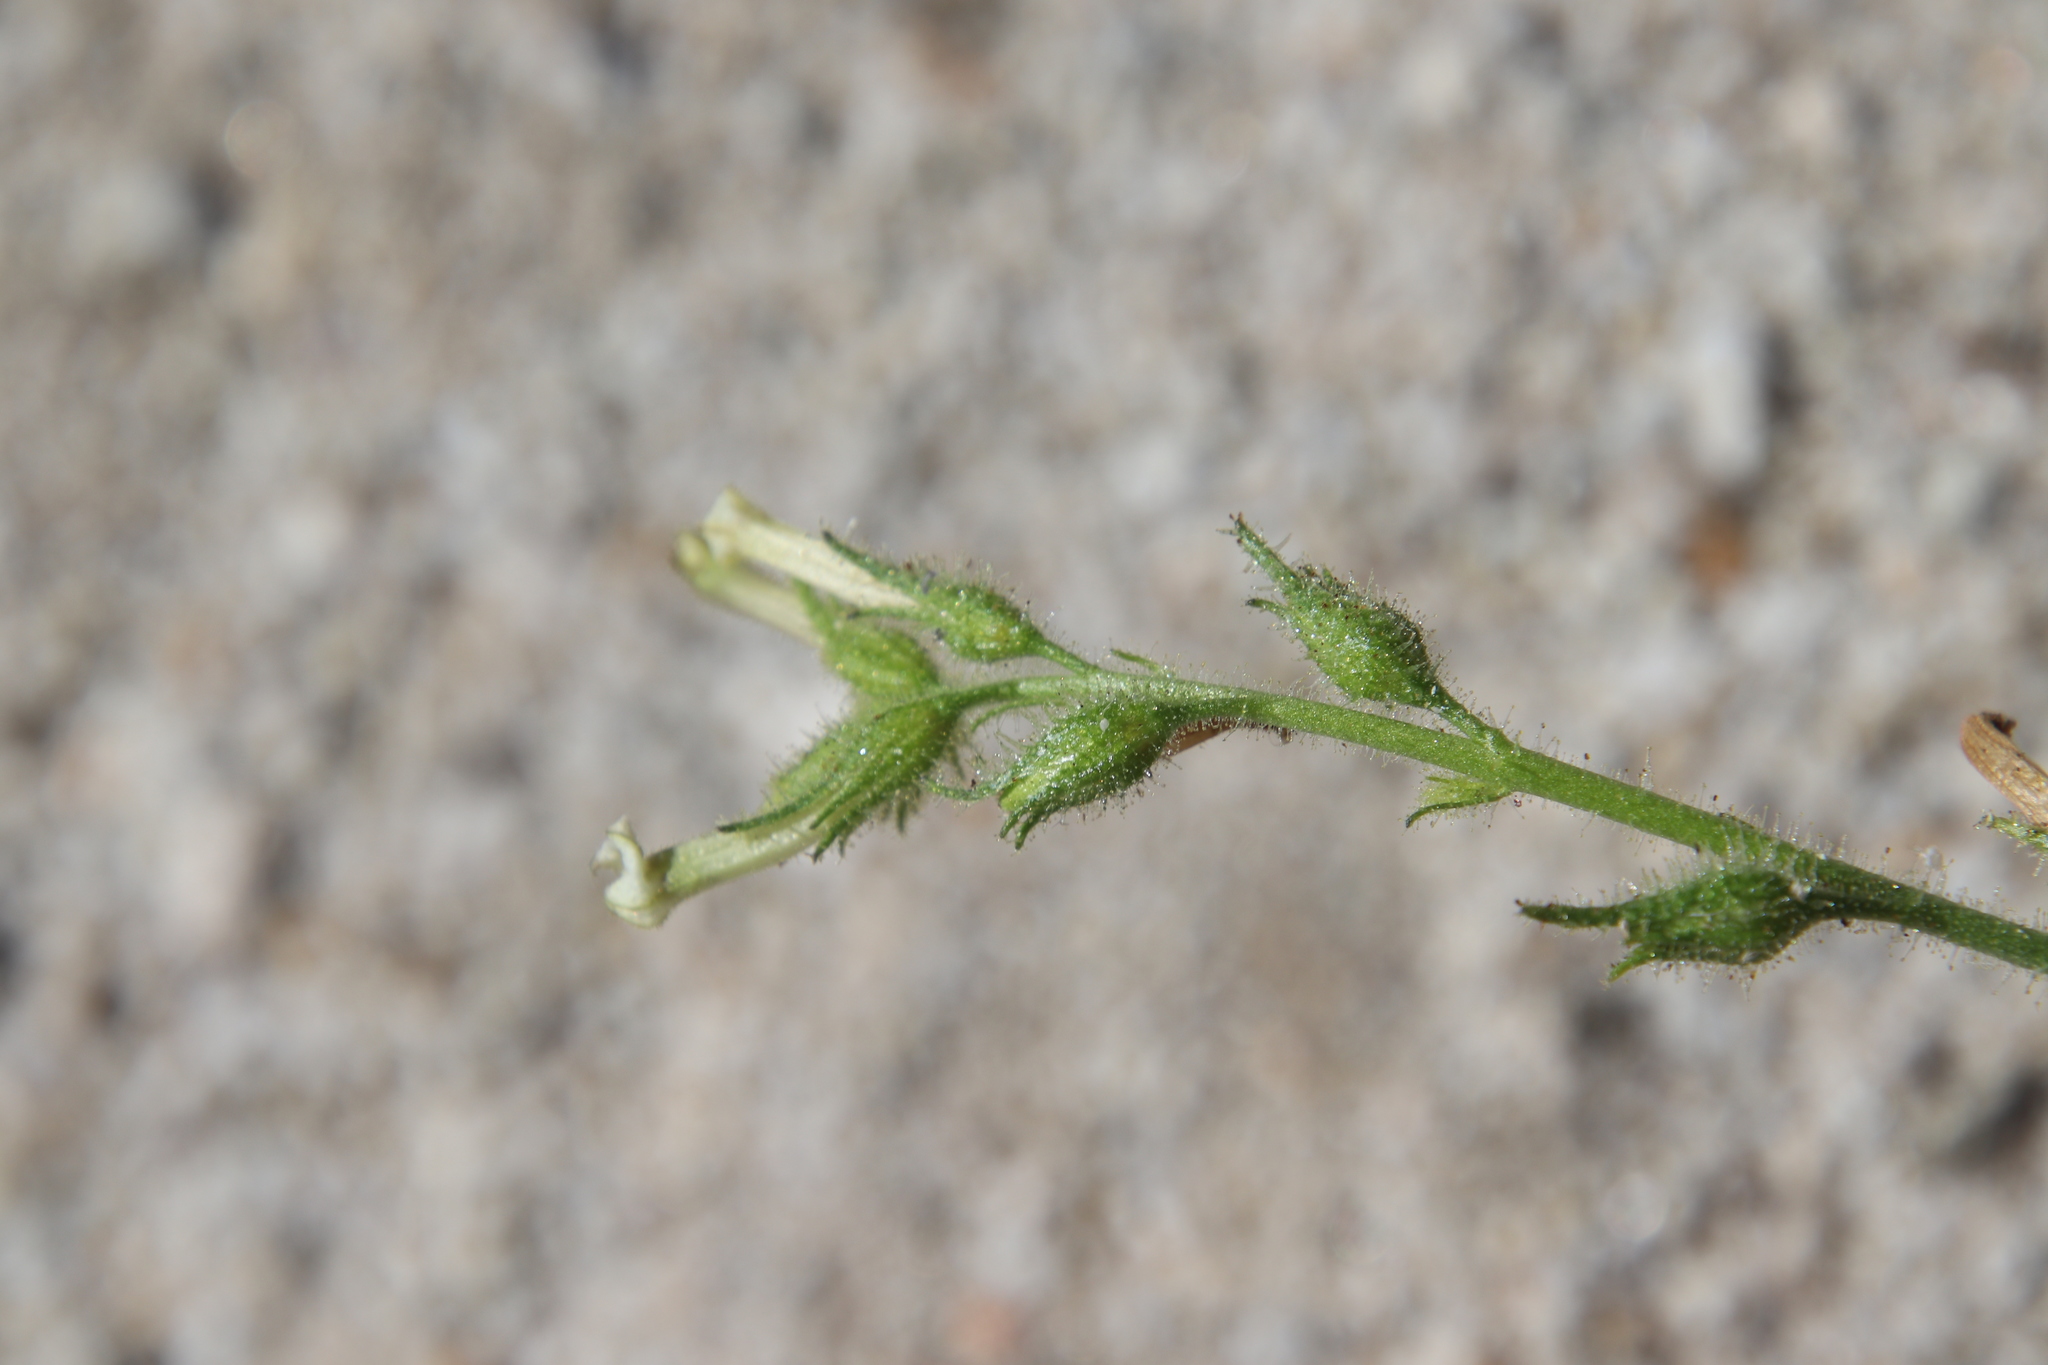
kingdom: Plantae
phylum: Tracheophyta
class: Magnoliopsida
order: Solanales
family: Solanaceae
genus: Nicotiana
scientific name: Nicotiana clevelandii
